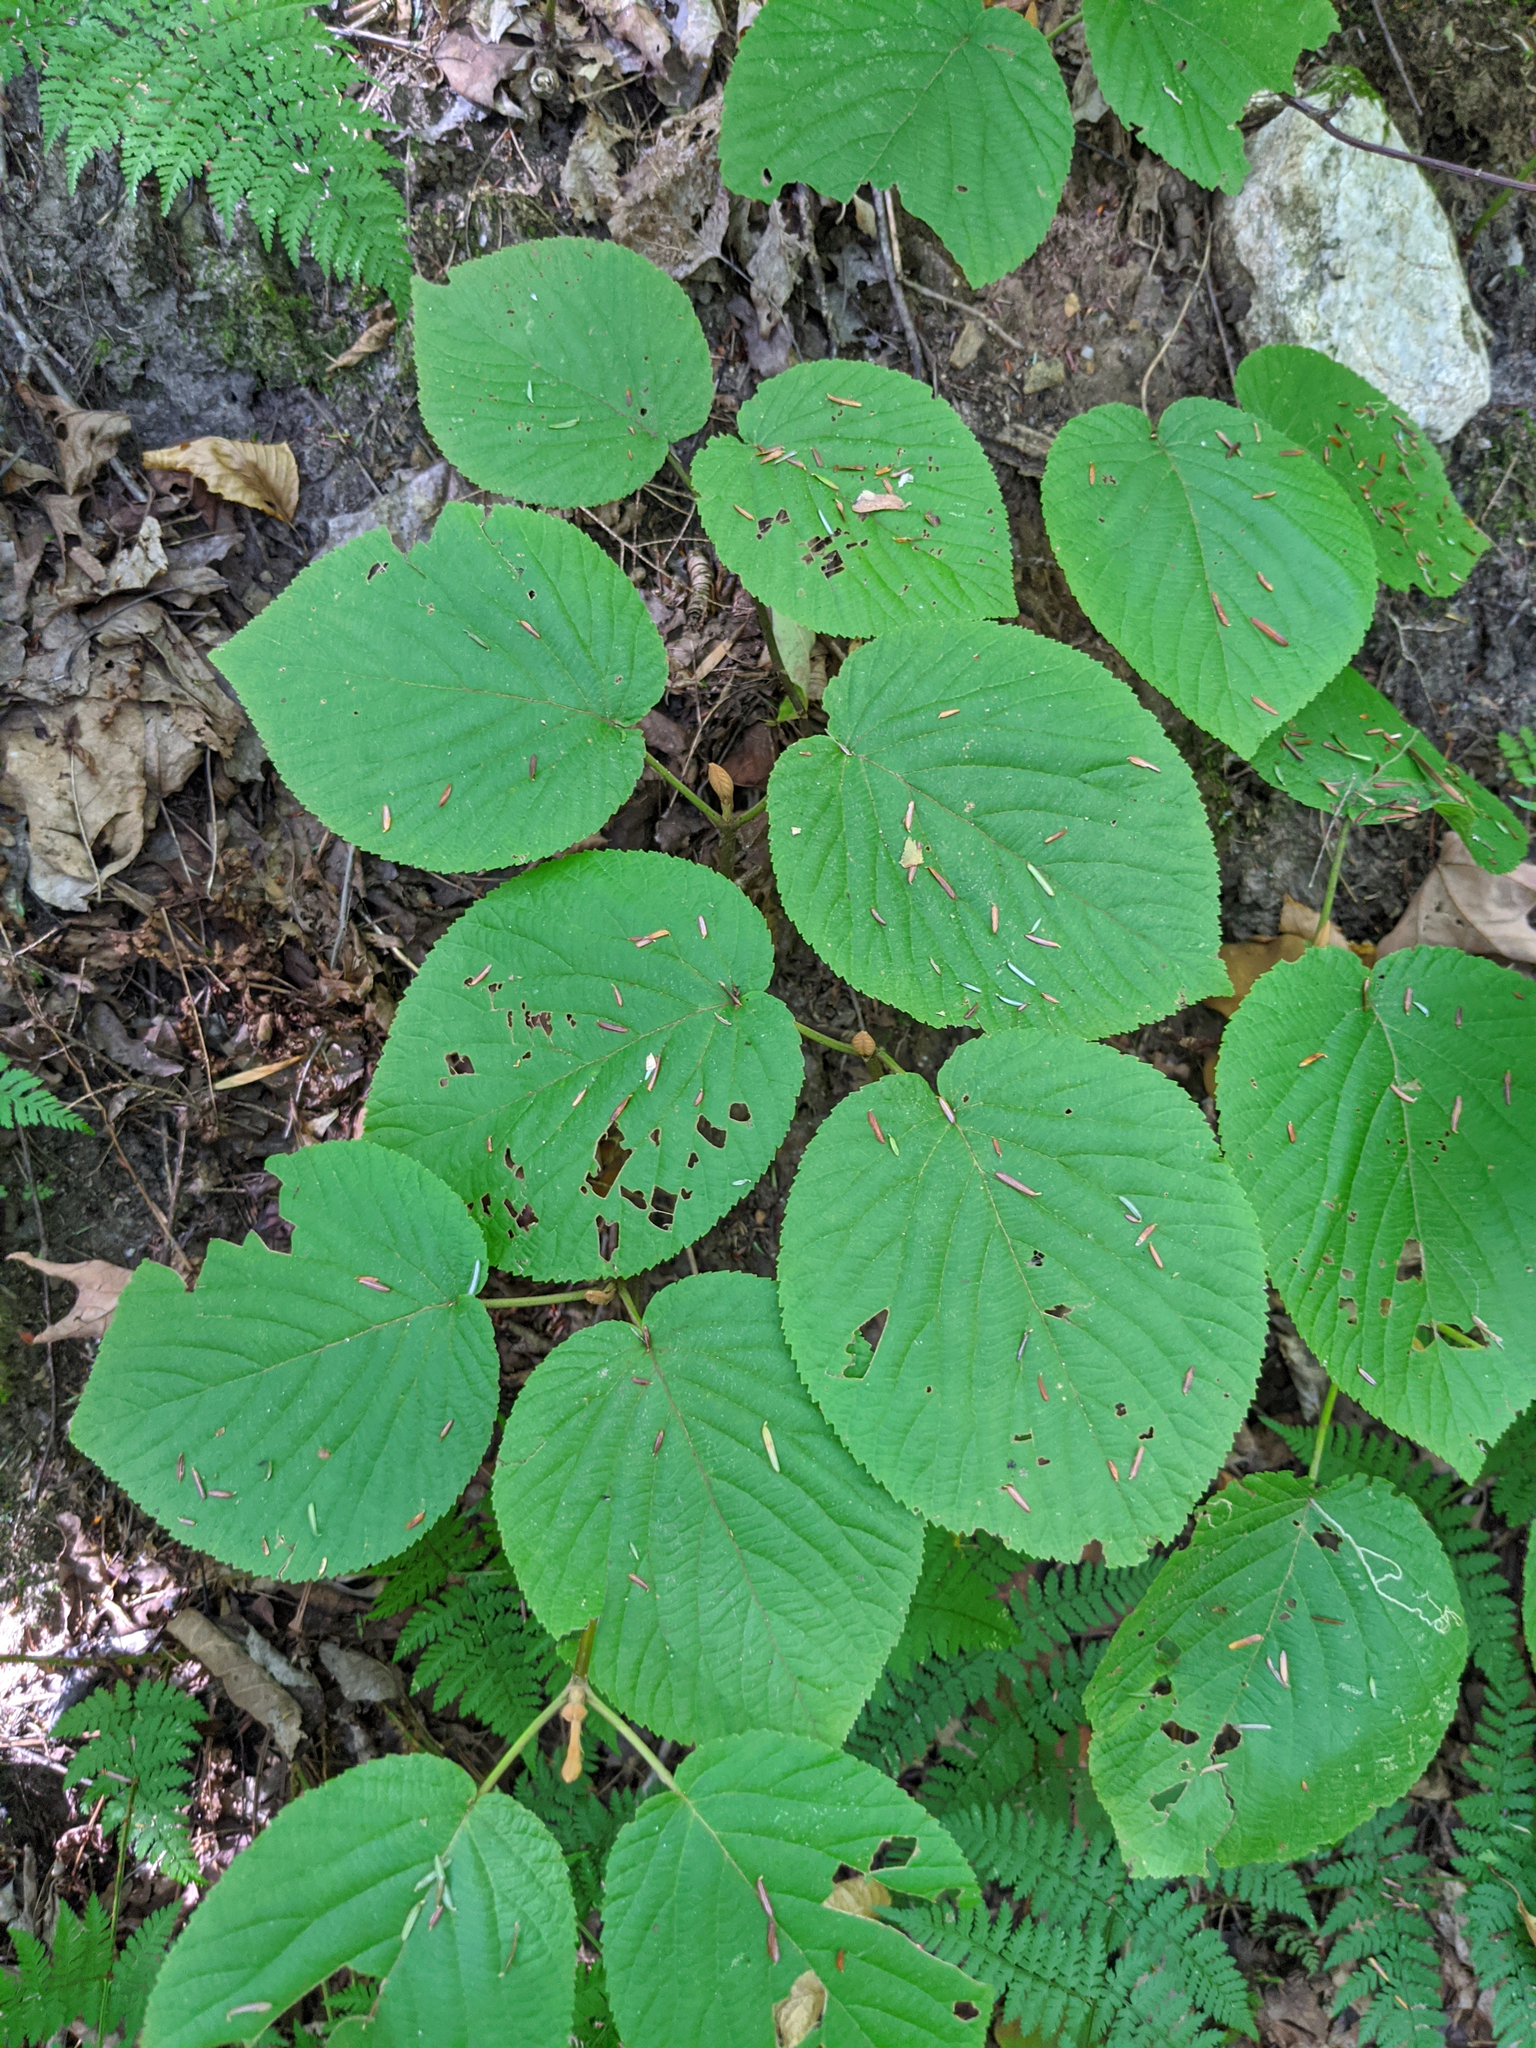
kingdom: Plantae
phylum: Tracheophyta
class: Magnoliopsida
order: Dipsacales
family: Viburnaceae
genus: Viburnum
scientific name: Viburnum lantanoides
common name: Hobblebush
